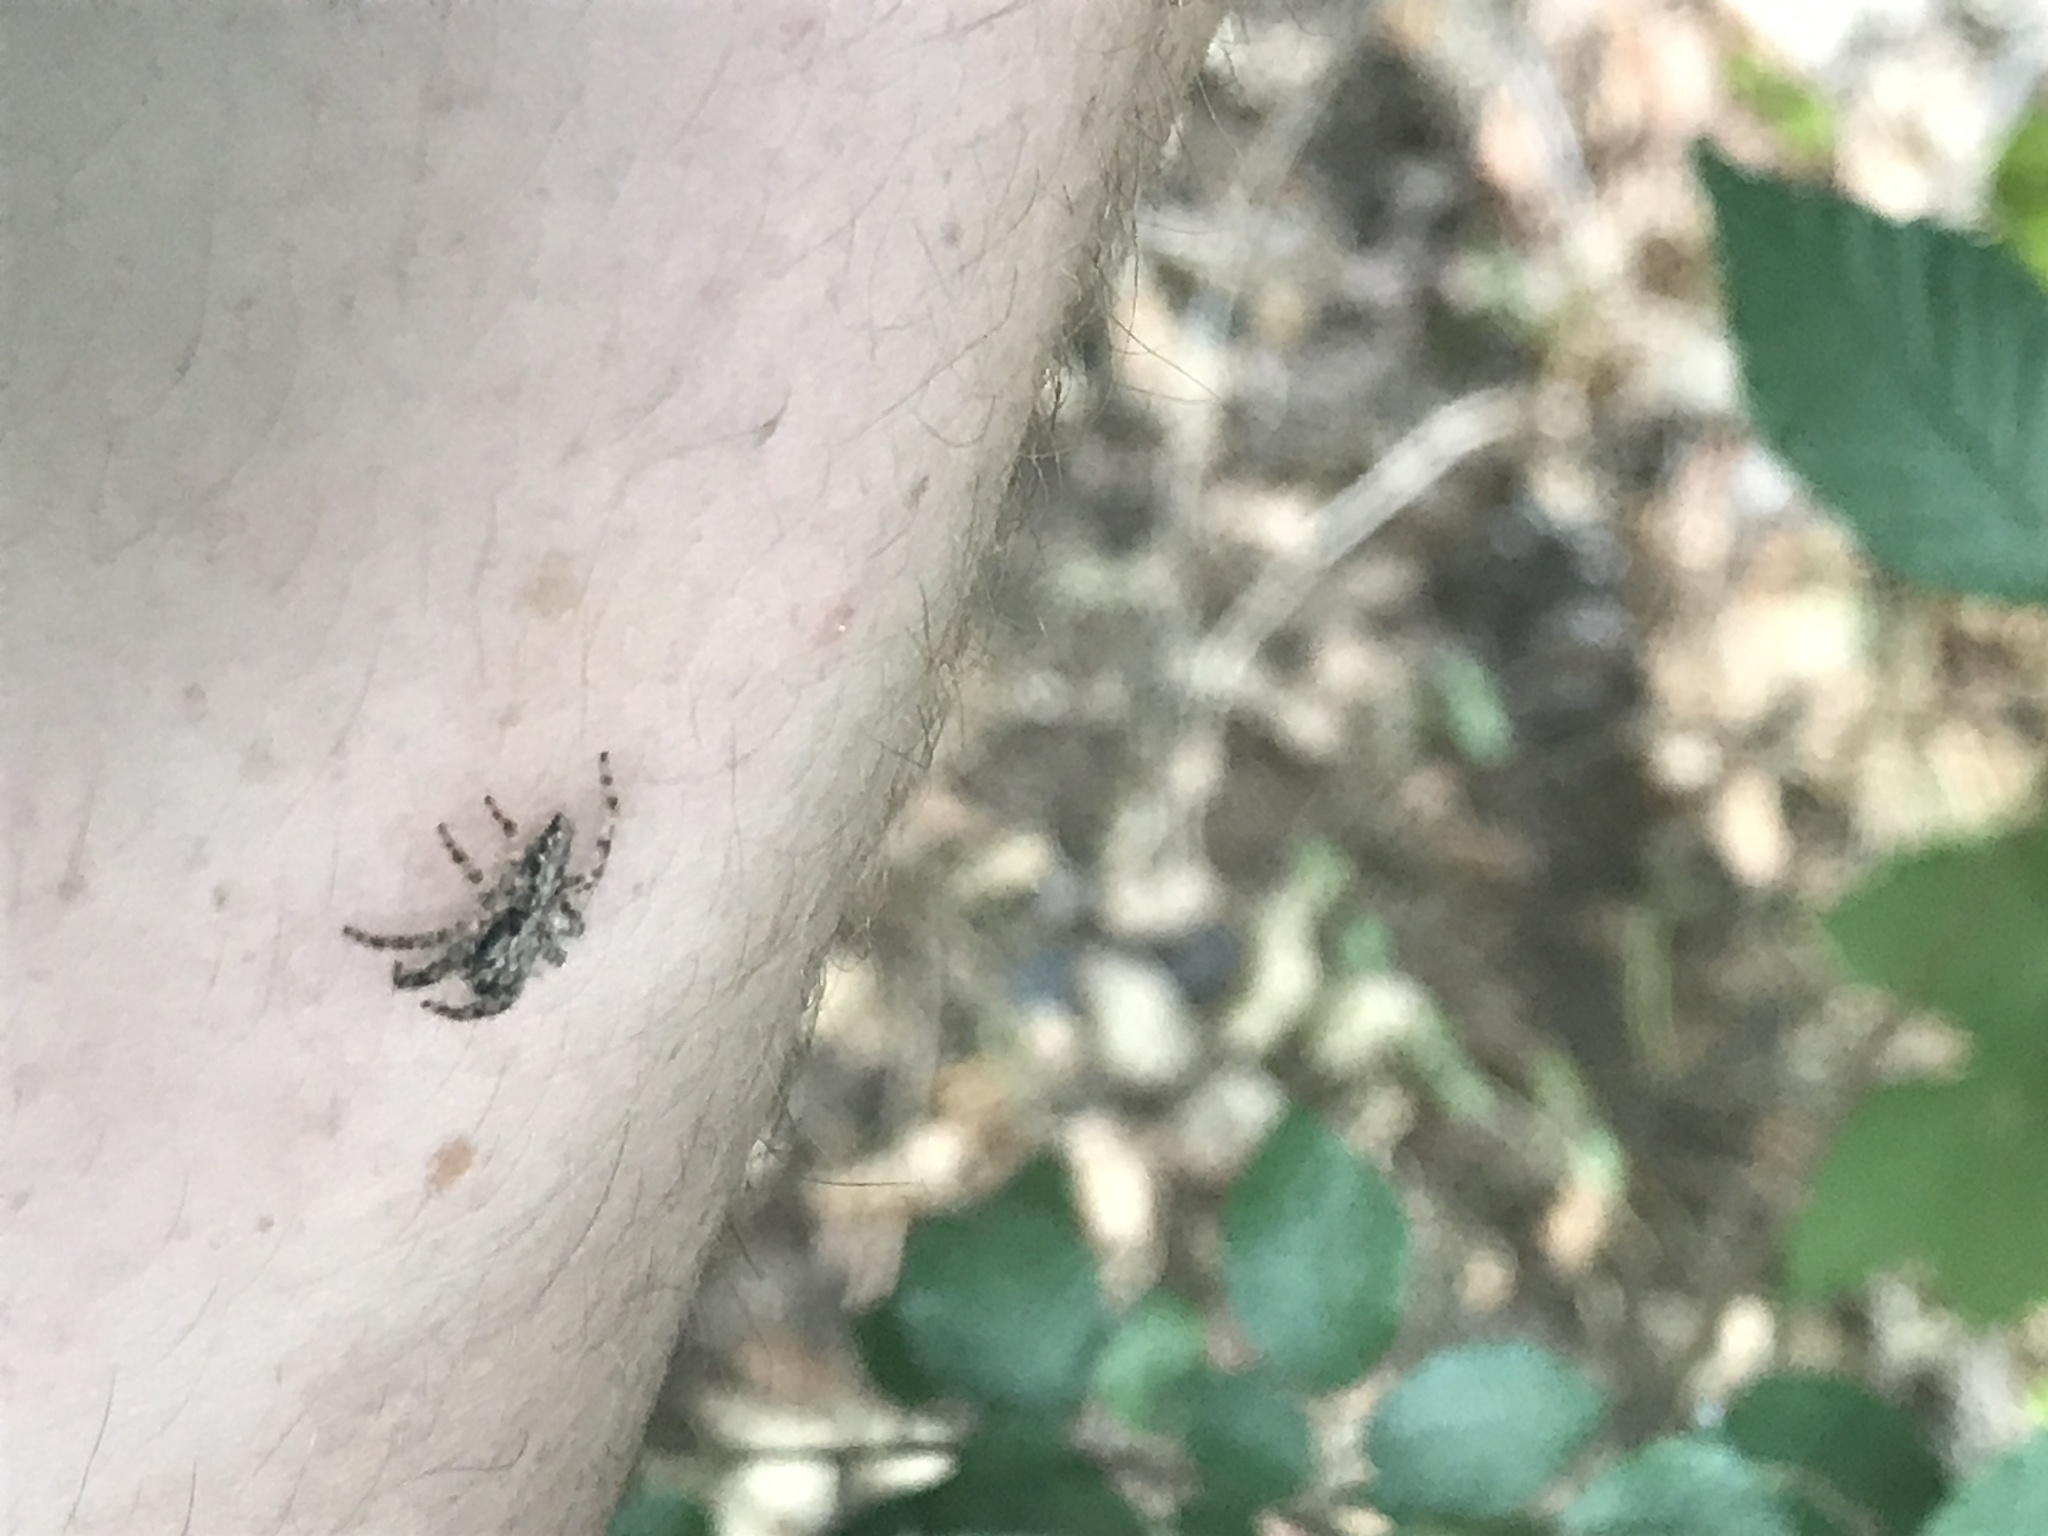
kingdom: Animalia
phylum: Arthropoda
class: Arachnida
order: Araneae
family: Salticidae
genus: Platycryptus
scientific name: Platycryptus californicus
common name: Jumping spiders
